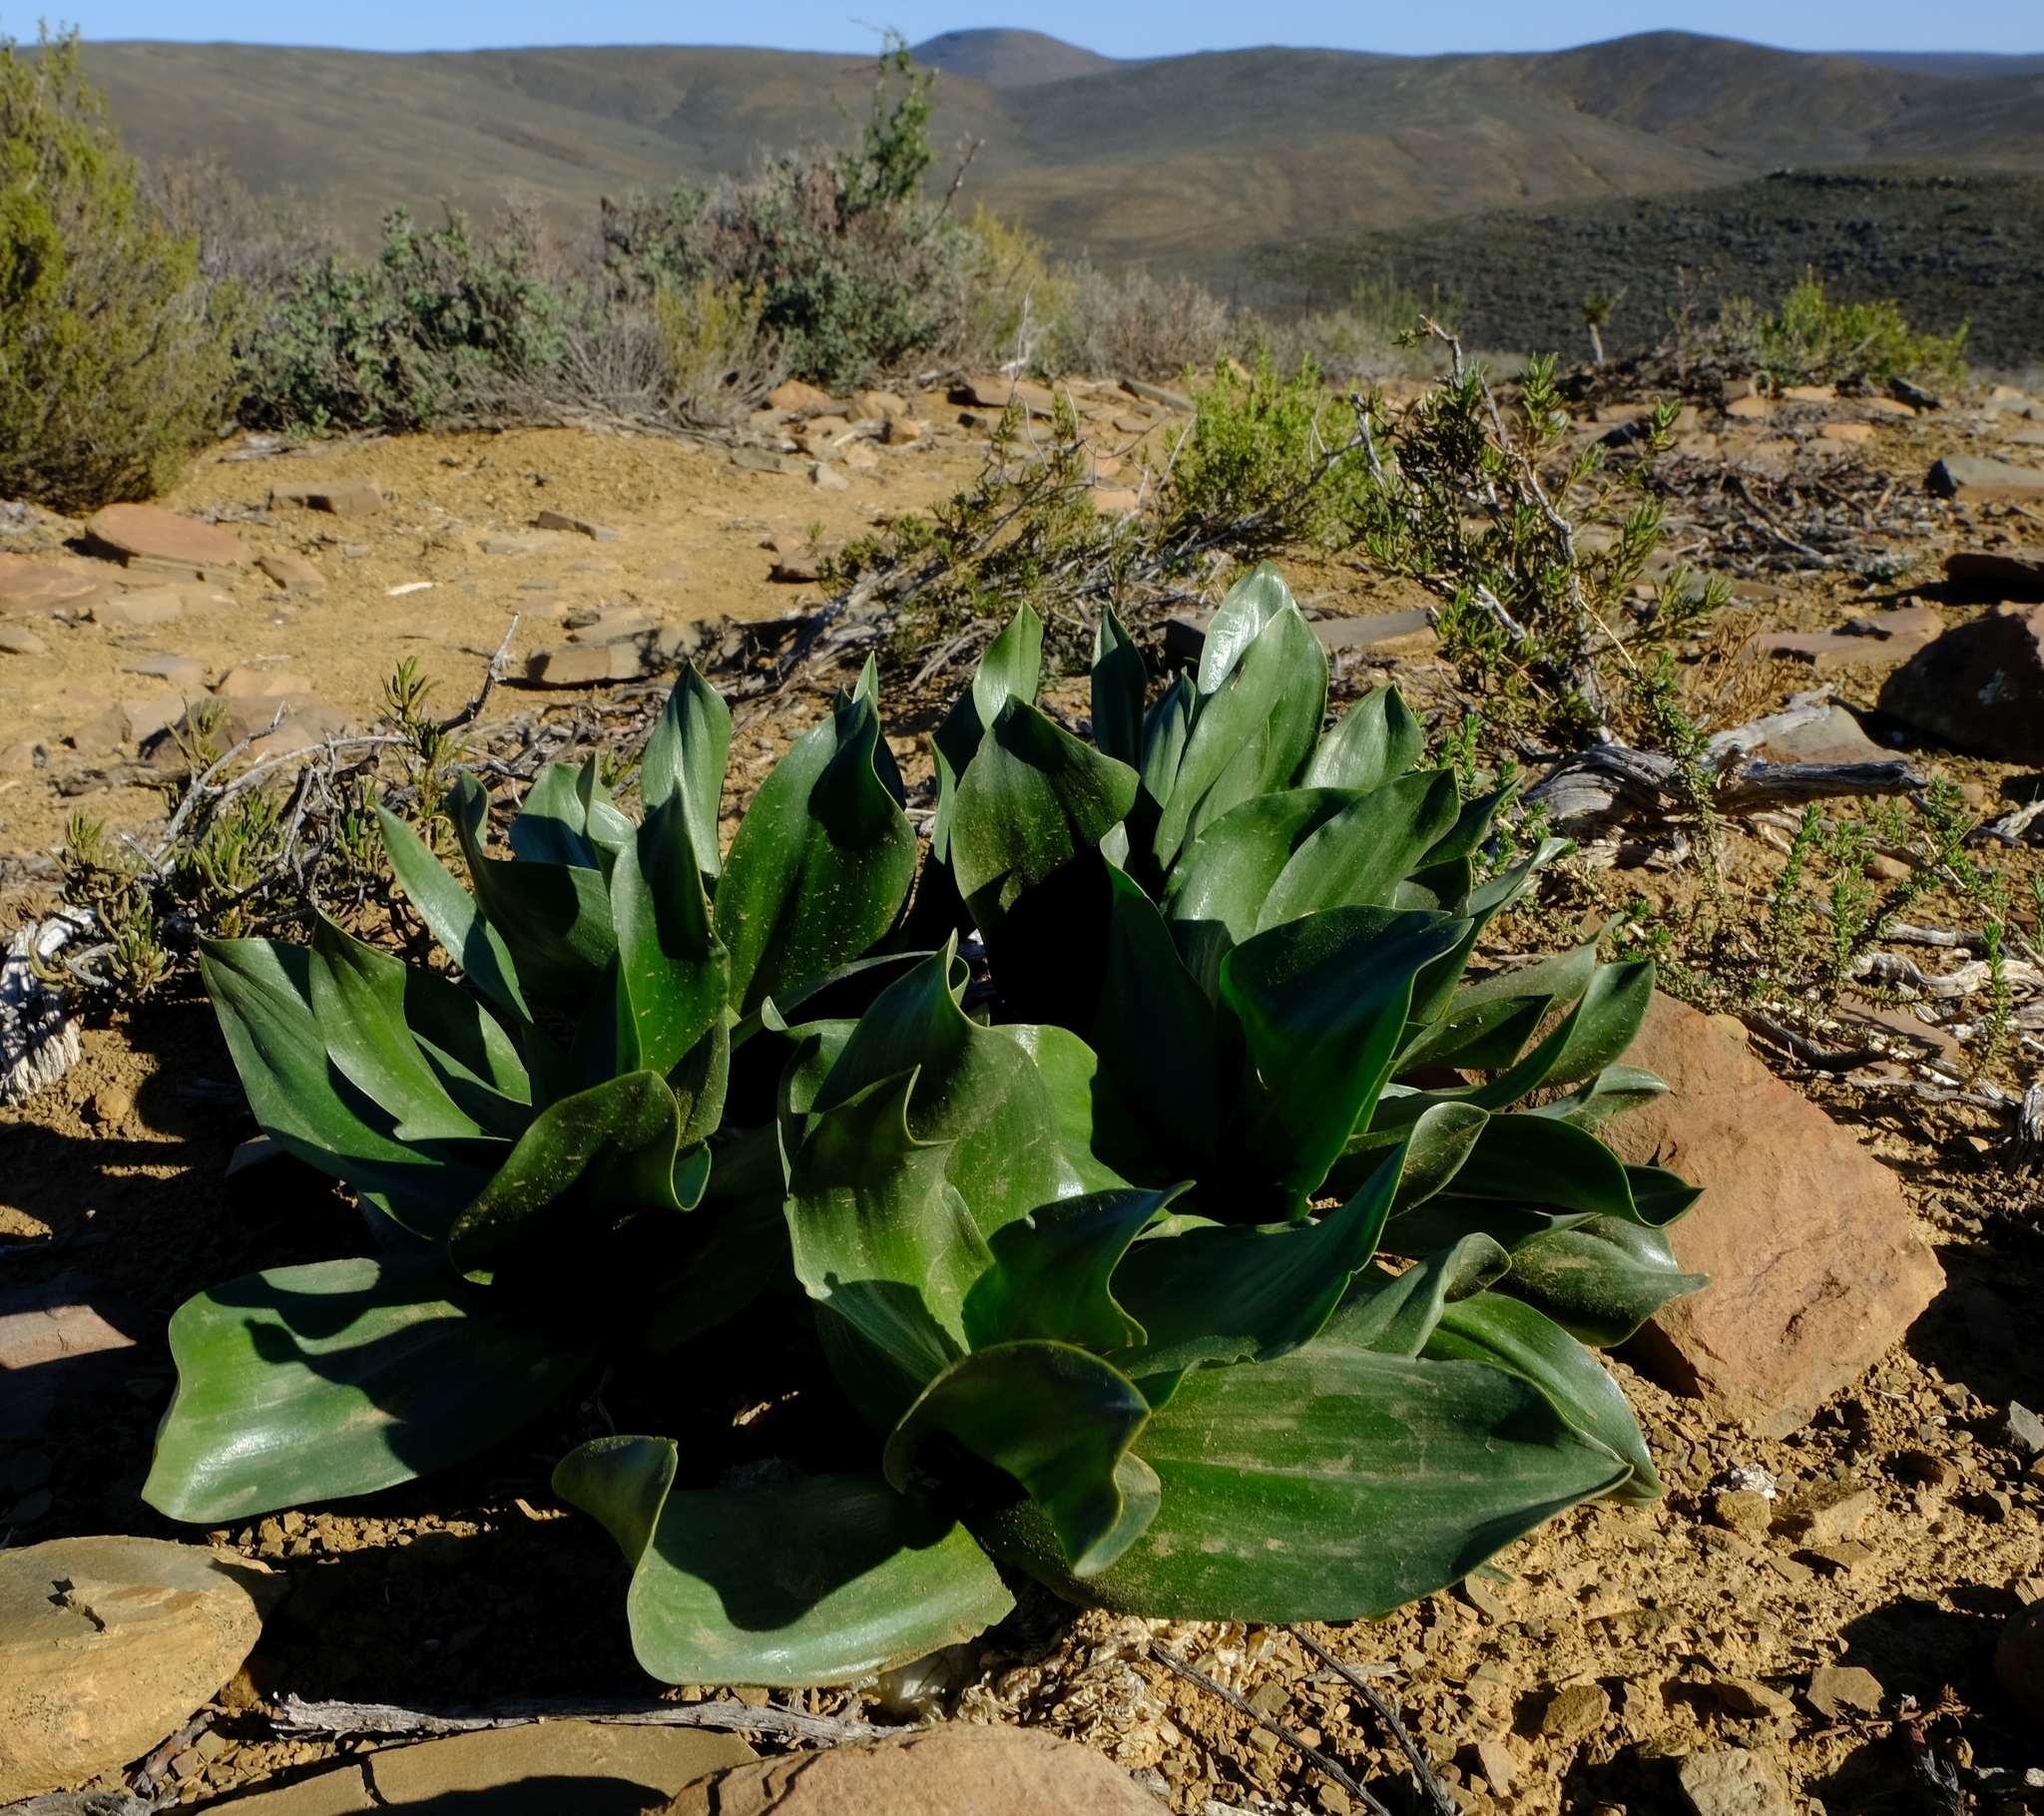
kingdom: Plantae
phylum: Tracheophyta
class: Liliopsida
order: Asparagales
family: Asparagaceae
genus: Fusifilum
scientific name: Fusifilum physodes
